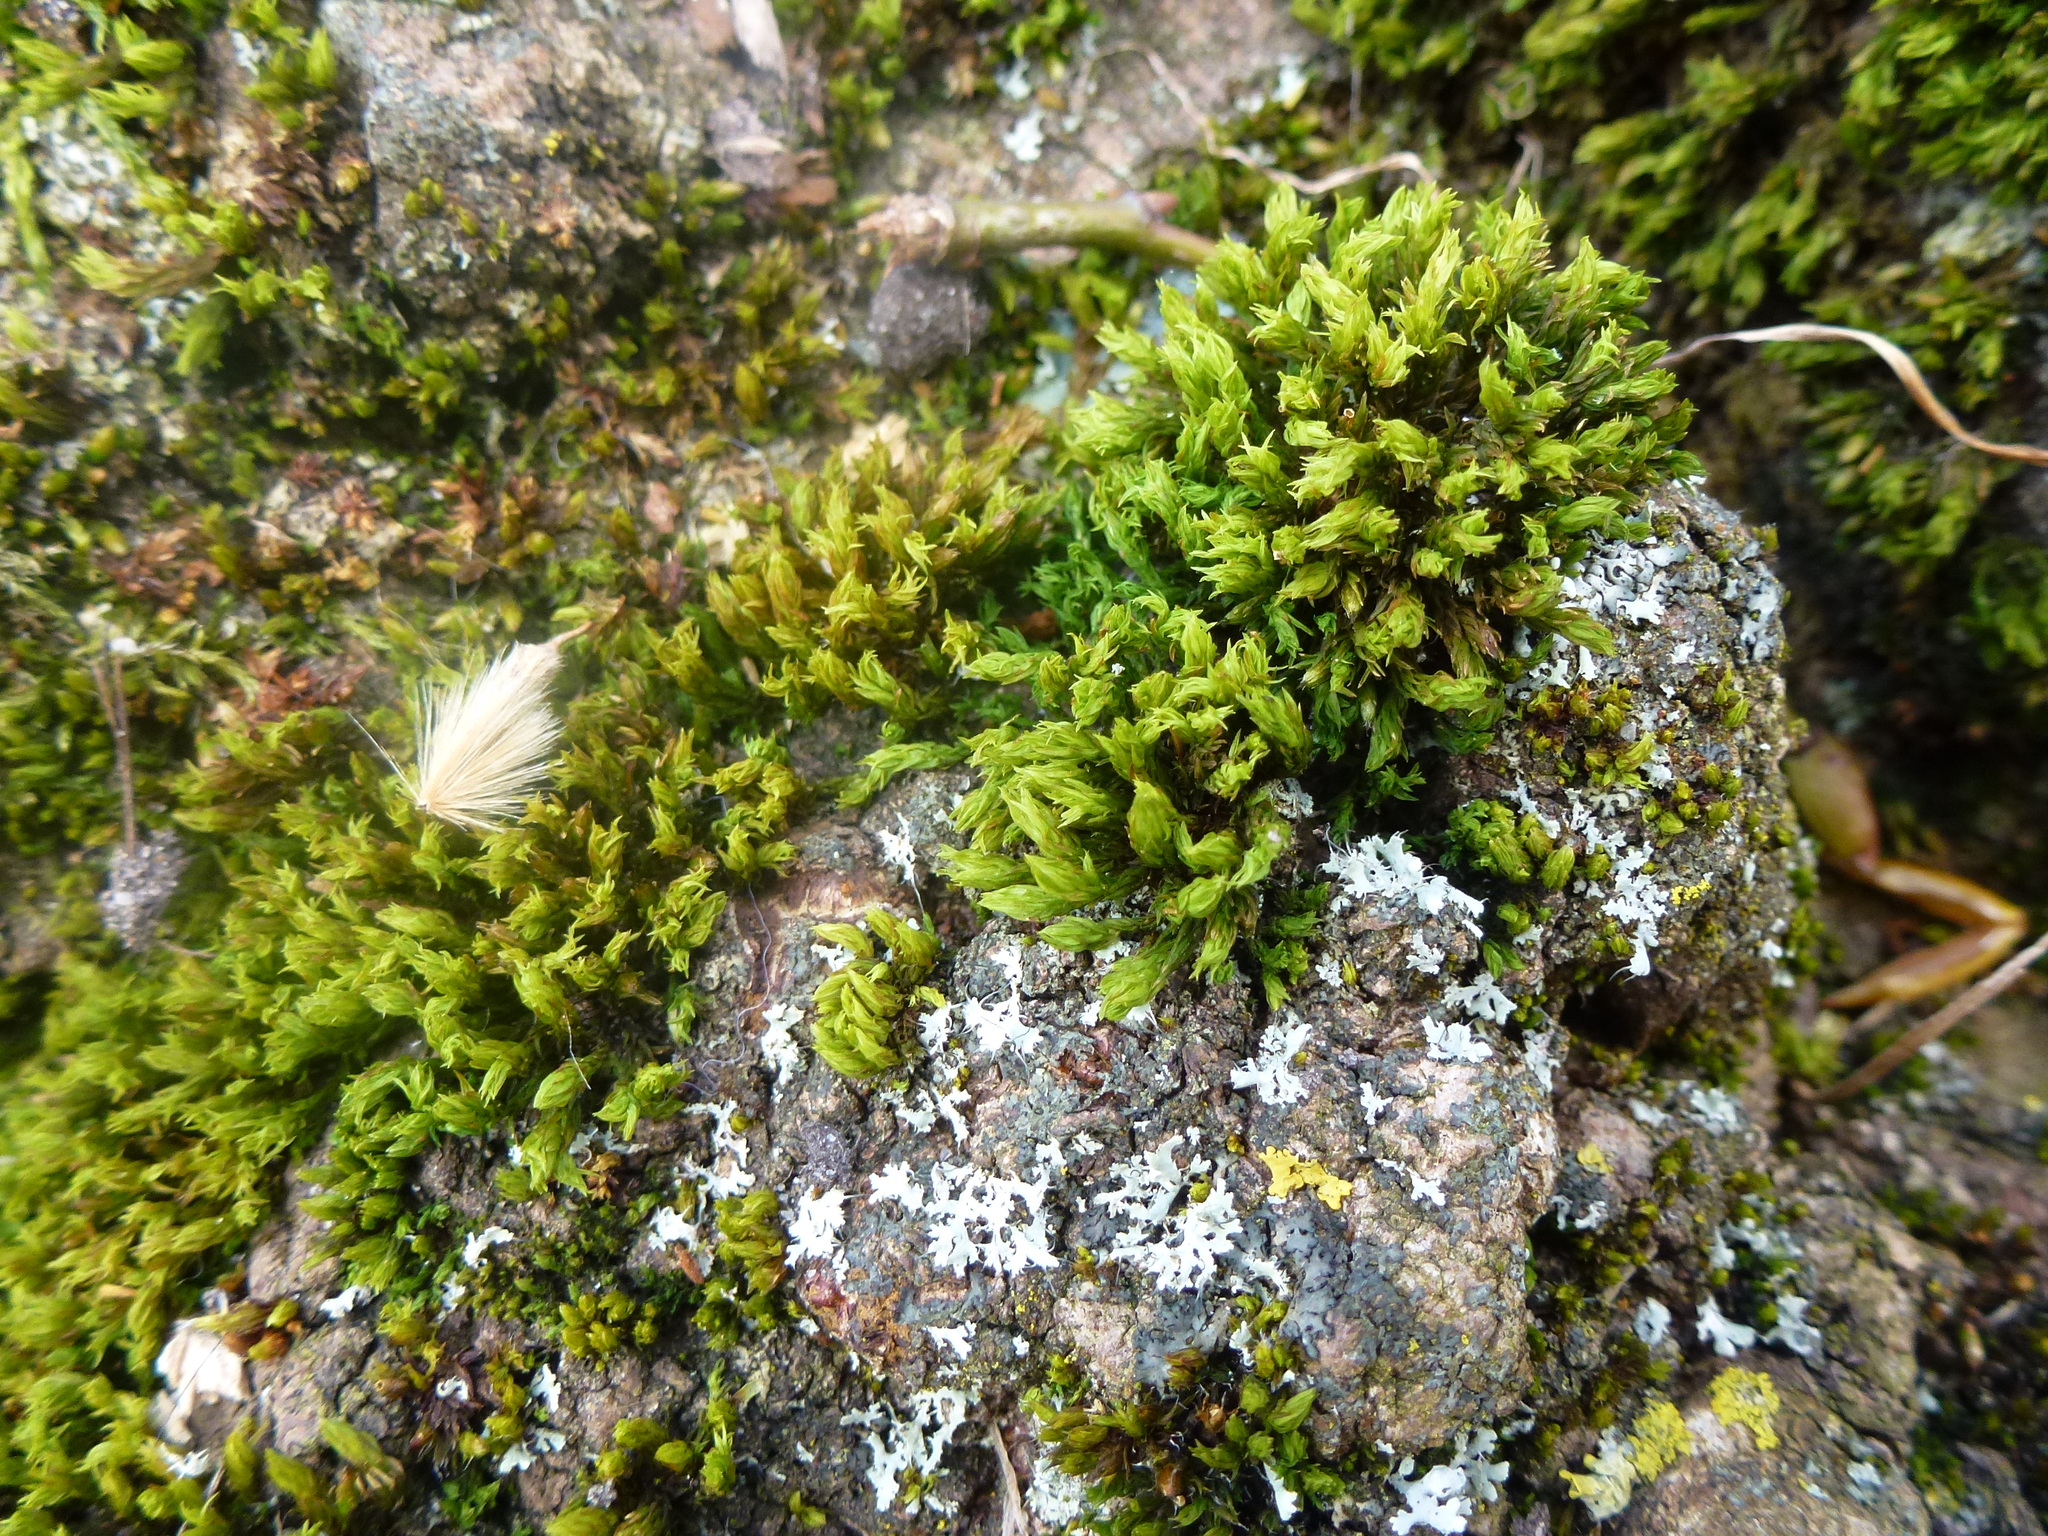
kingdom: Plantae
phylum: Bryophyta
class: Bryopsida
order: Orthotrichales
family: Orthotrichaceae
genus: Lewinskya
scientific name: Lewinskya affinis
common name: Wood bristle-moss
